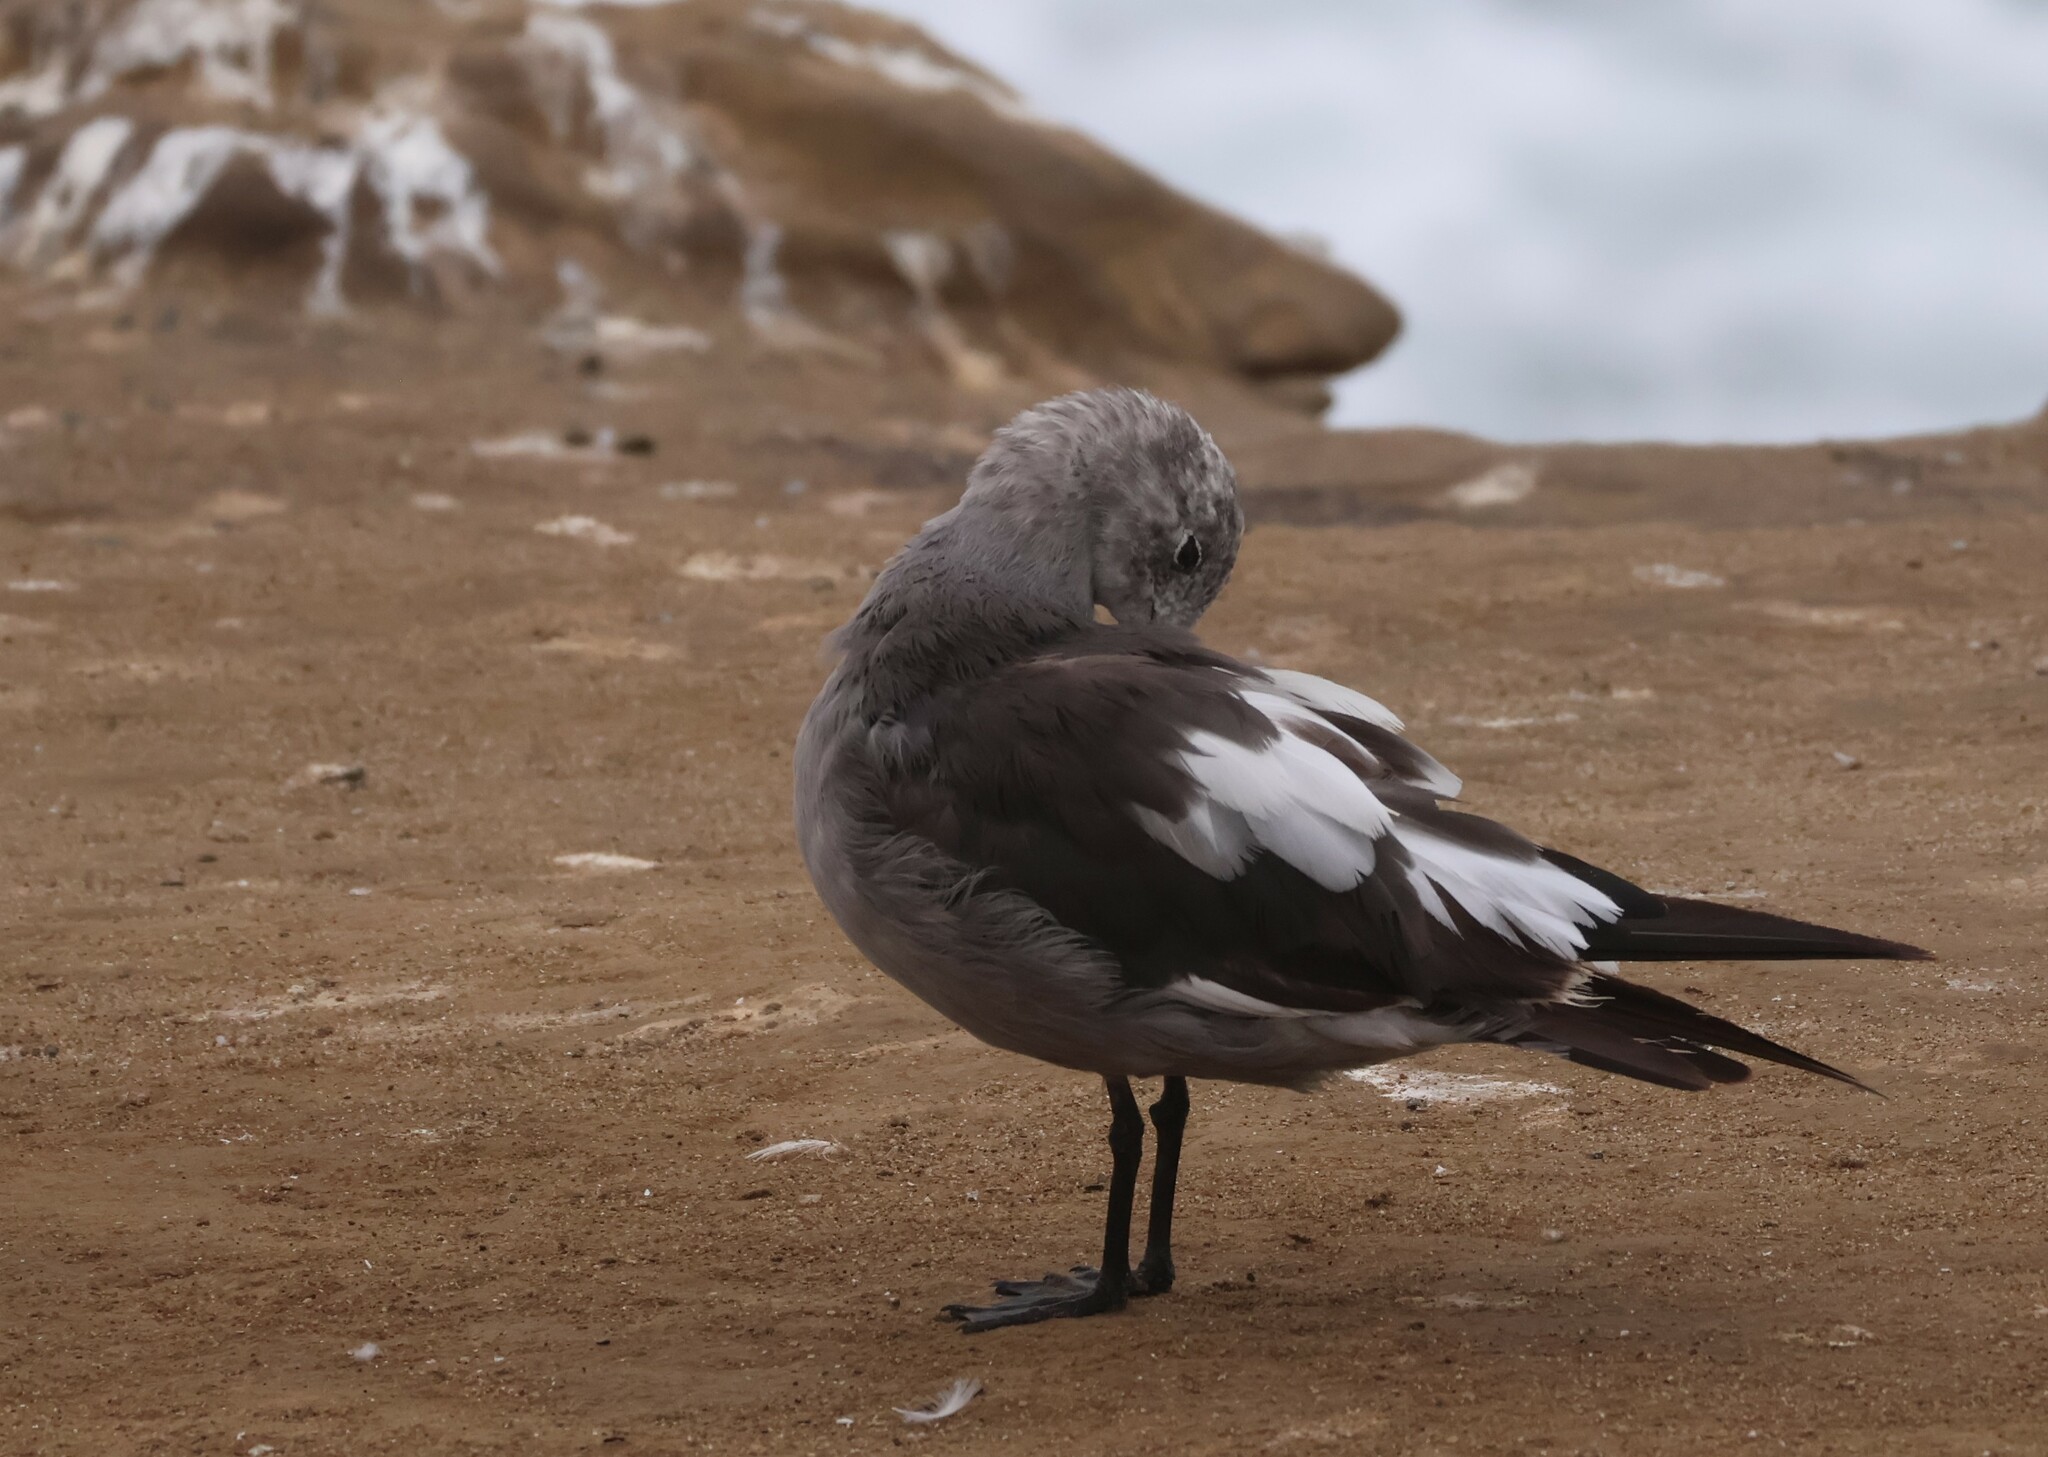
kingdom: Animalia
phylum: Chordata
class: Aves
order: Charadriiformes
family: Laridae
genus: Larus
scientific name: Larus heermanni
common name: Heermann's gull
